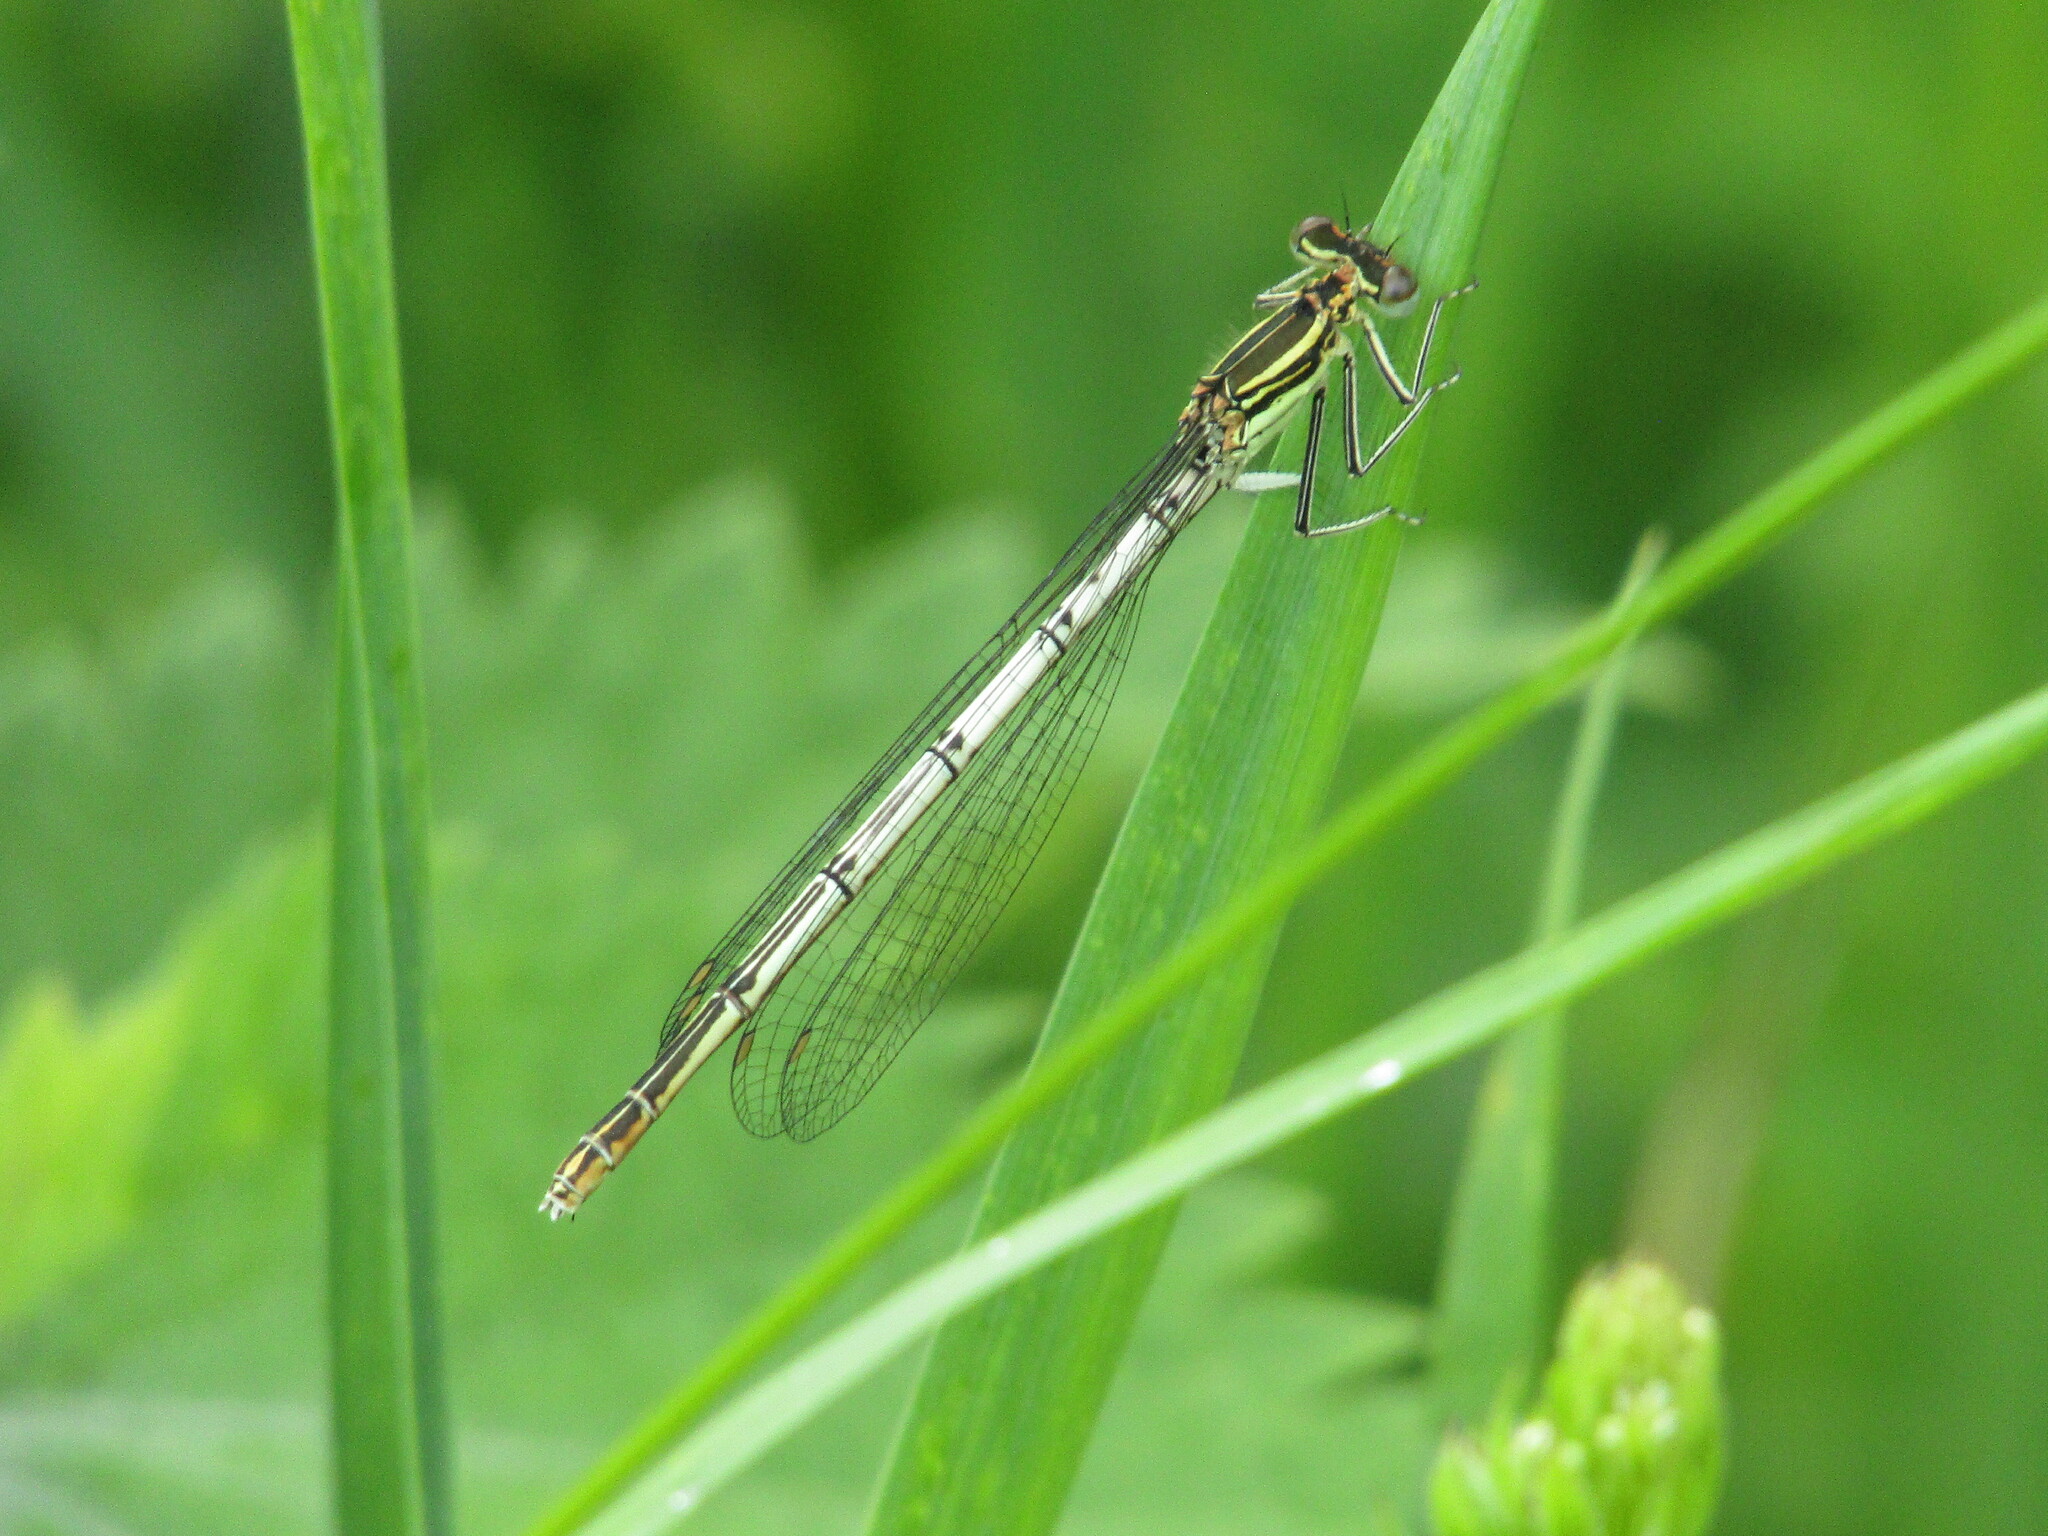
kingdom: Animalia
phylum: Arthropoda
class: Insecta
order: Odonata
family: Platycnemididae
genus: Platycnemis
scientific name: Platycnemis pennipes
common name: White-legged damselfly
